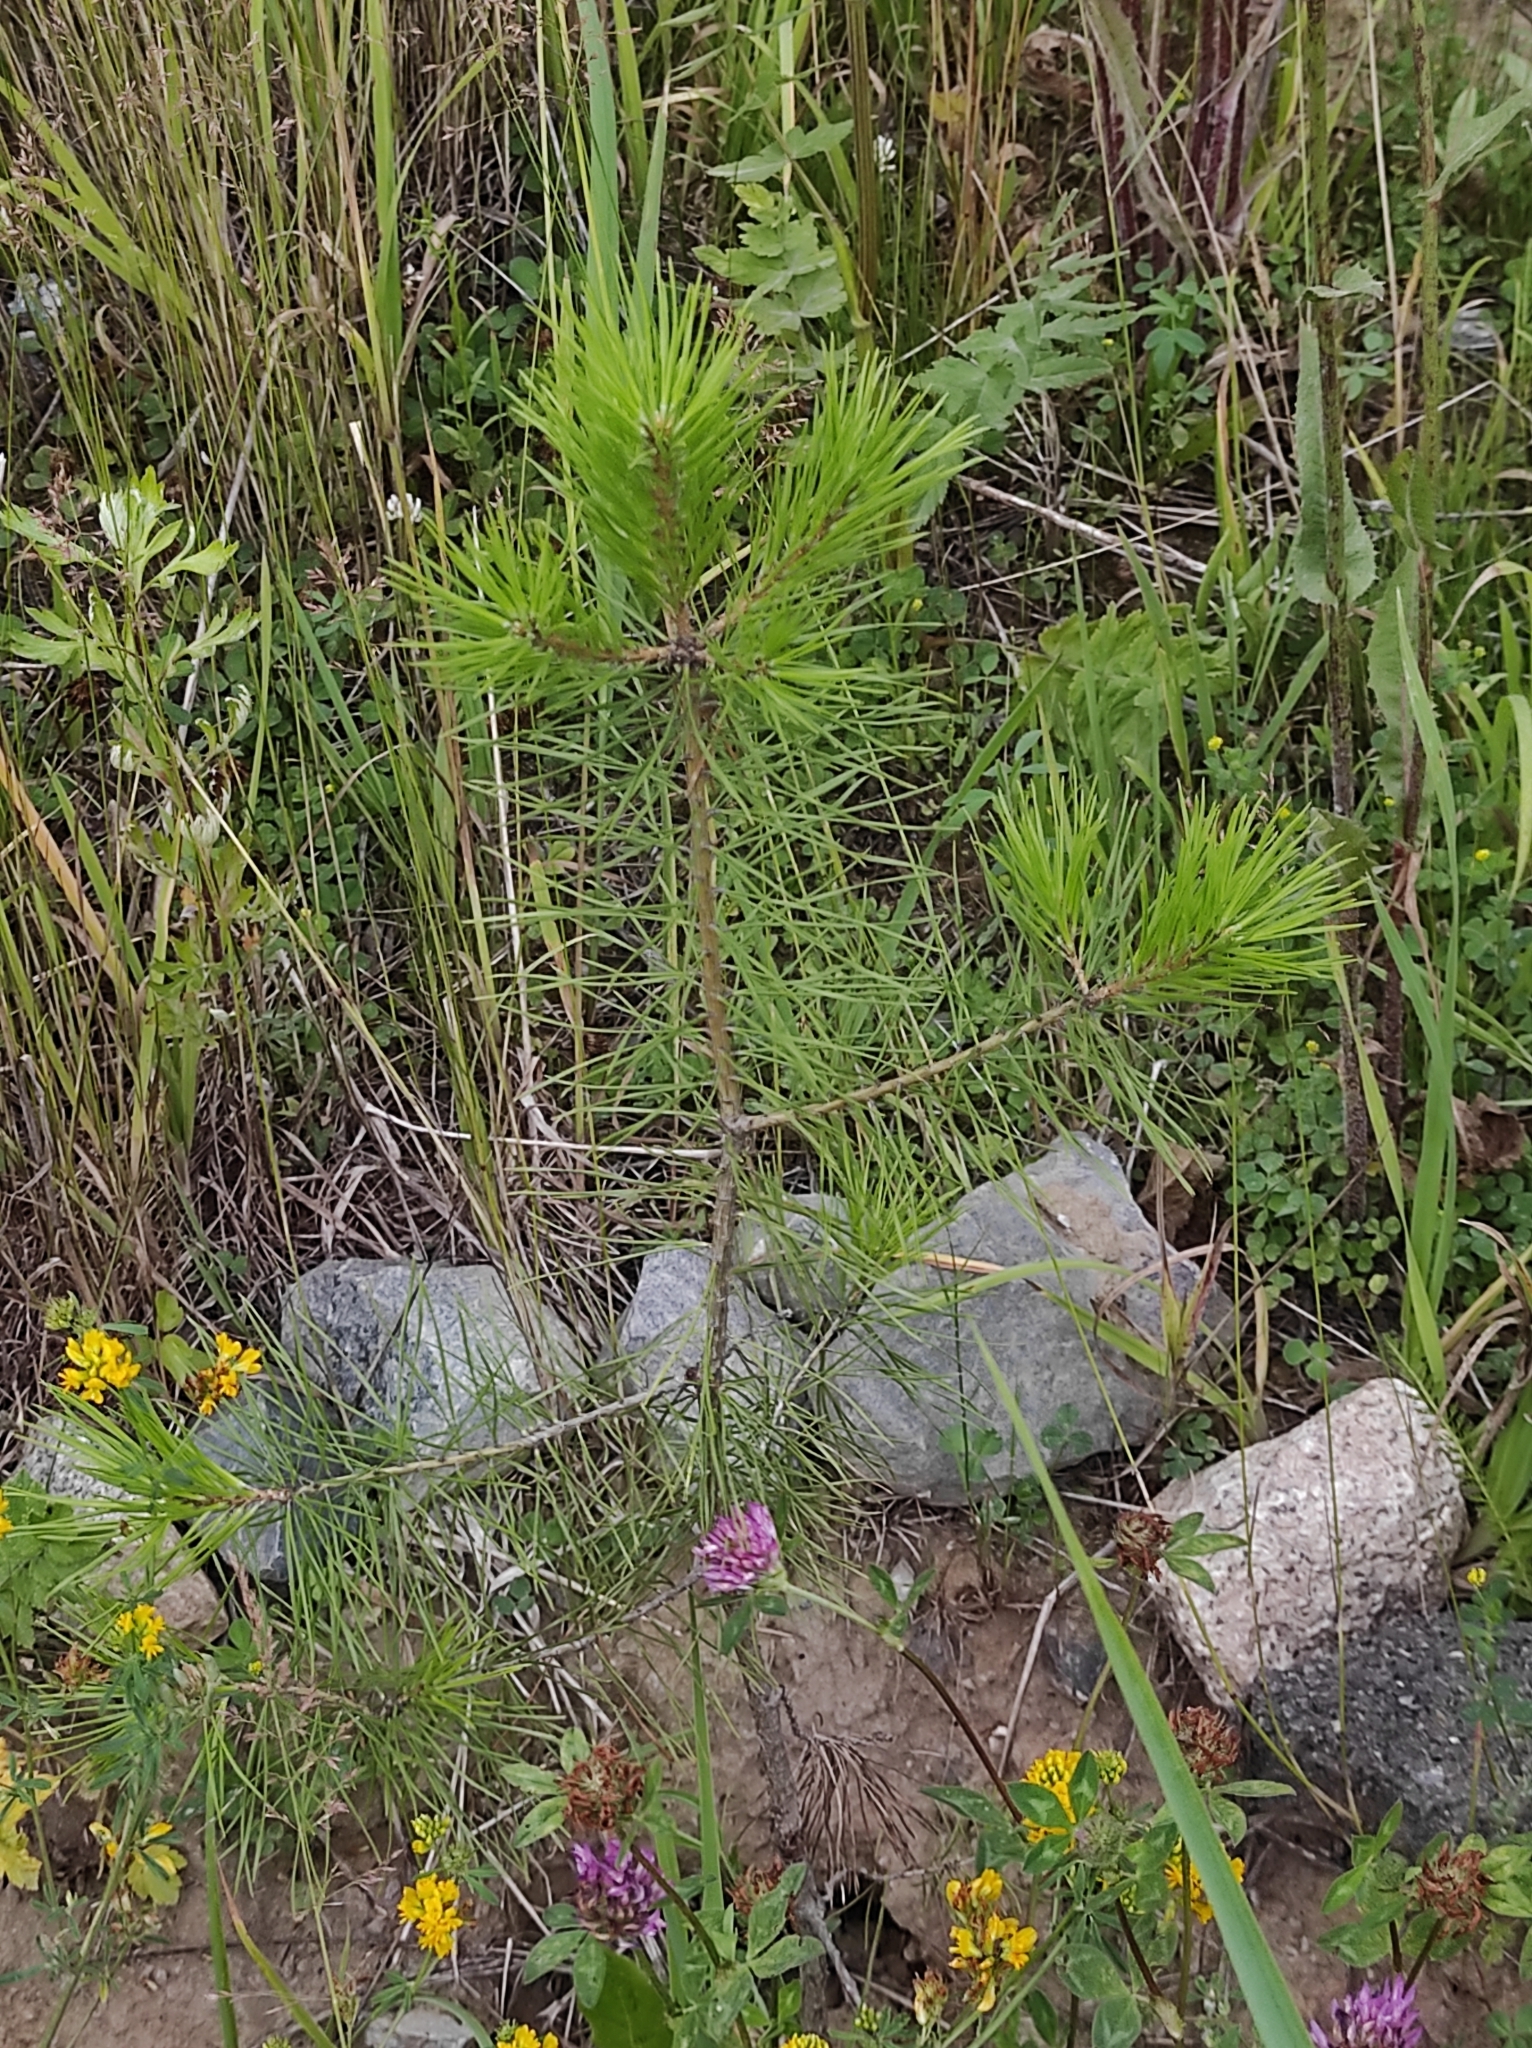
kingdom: Plantae
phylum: Tracheophyta
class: Pinopsida
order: Pinales
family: Pinaceae
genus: Pinus
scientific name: Pinus sylvestris
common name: Scots pine
